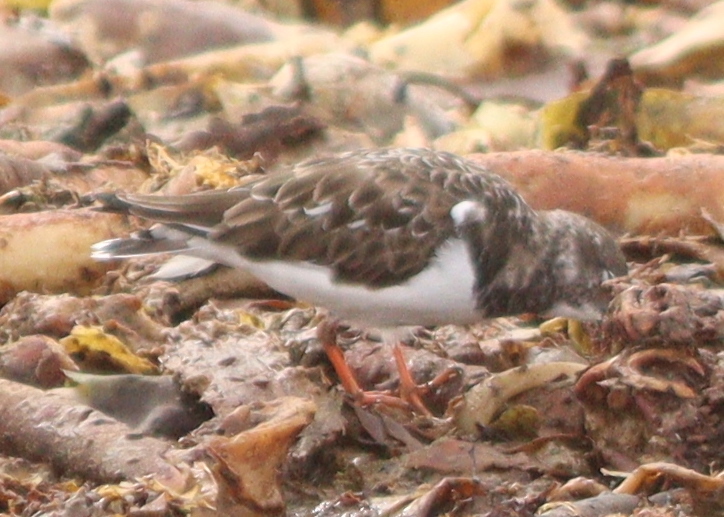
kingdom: Animalia
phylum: Chordata
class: Aves
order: Charadriiformes
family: Scolopacidae
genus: Arenaria
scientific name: Arenaria interpres
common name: Ruddy turnstone
